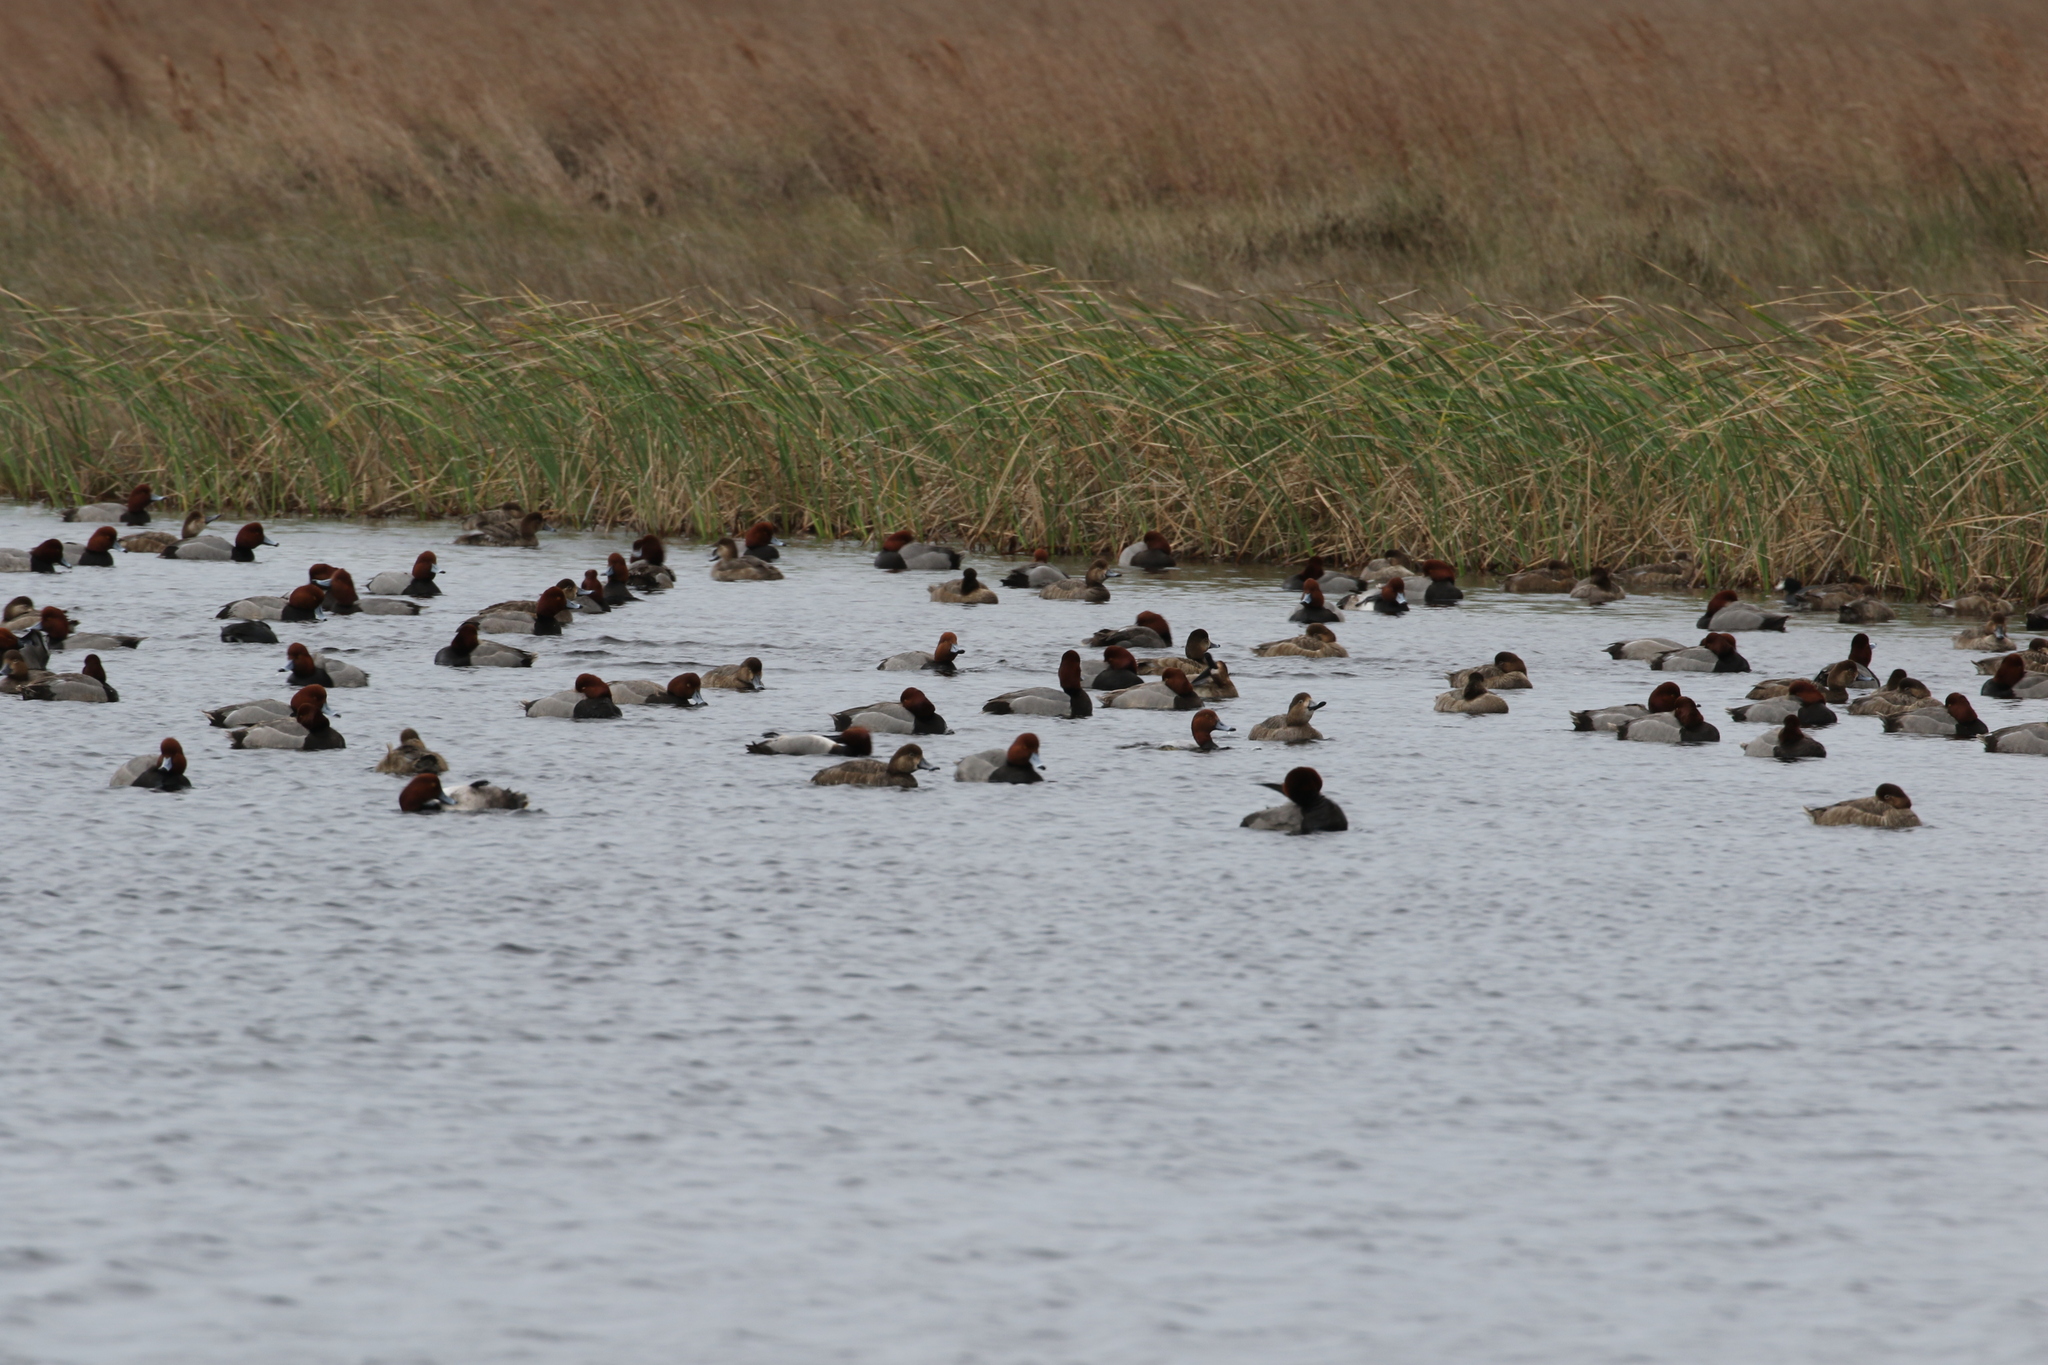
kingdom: Animalia
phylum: Chordata
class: Aves
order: Anseriformes
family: Anatidae
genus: Aythya
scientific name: Aythya americana
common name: Redhead
